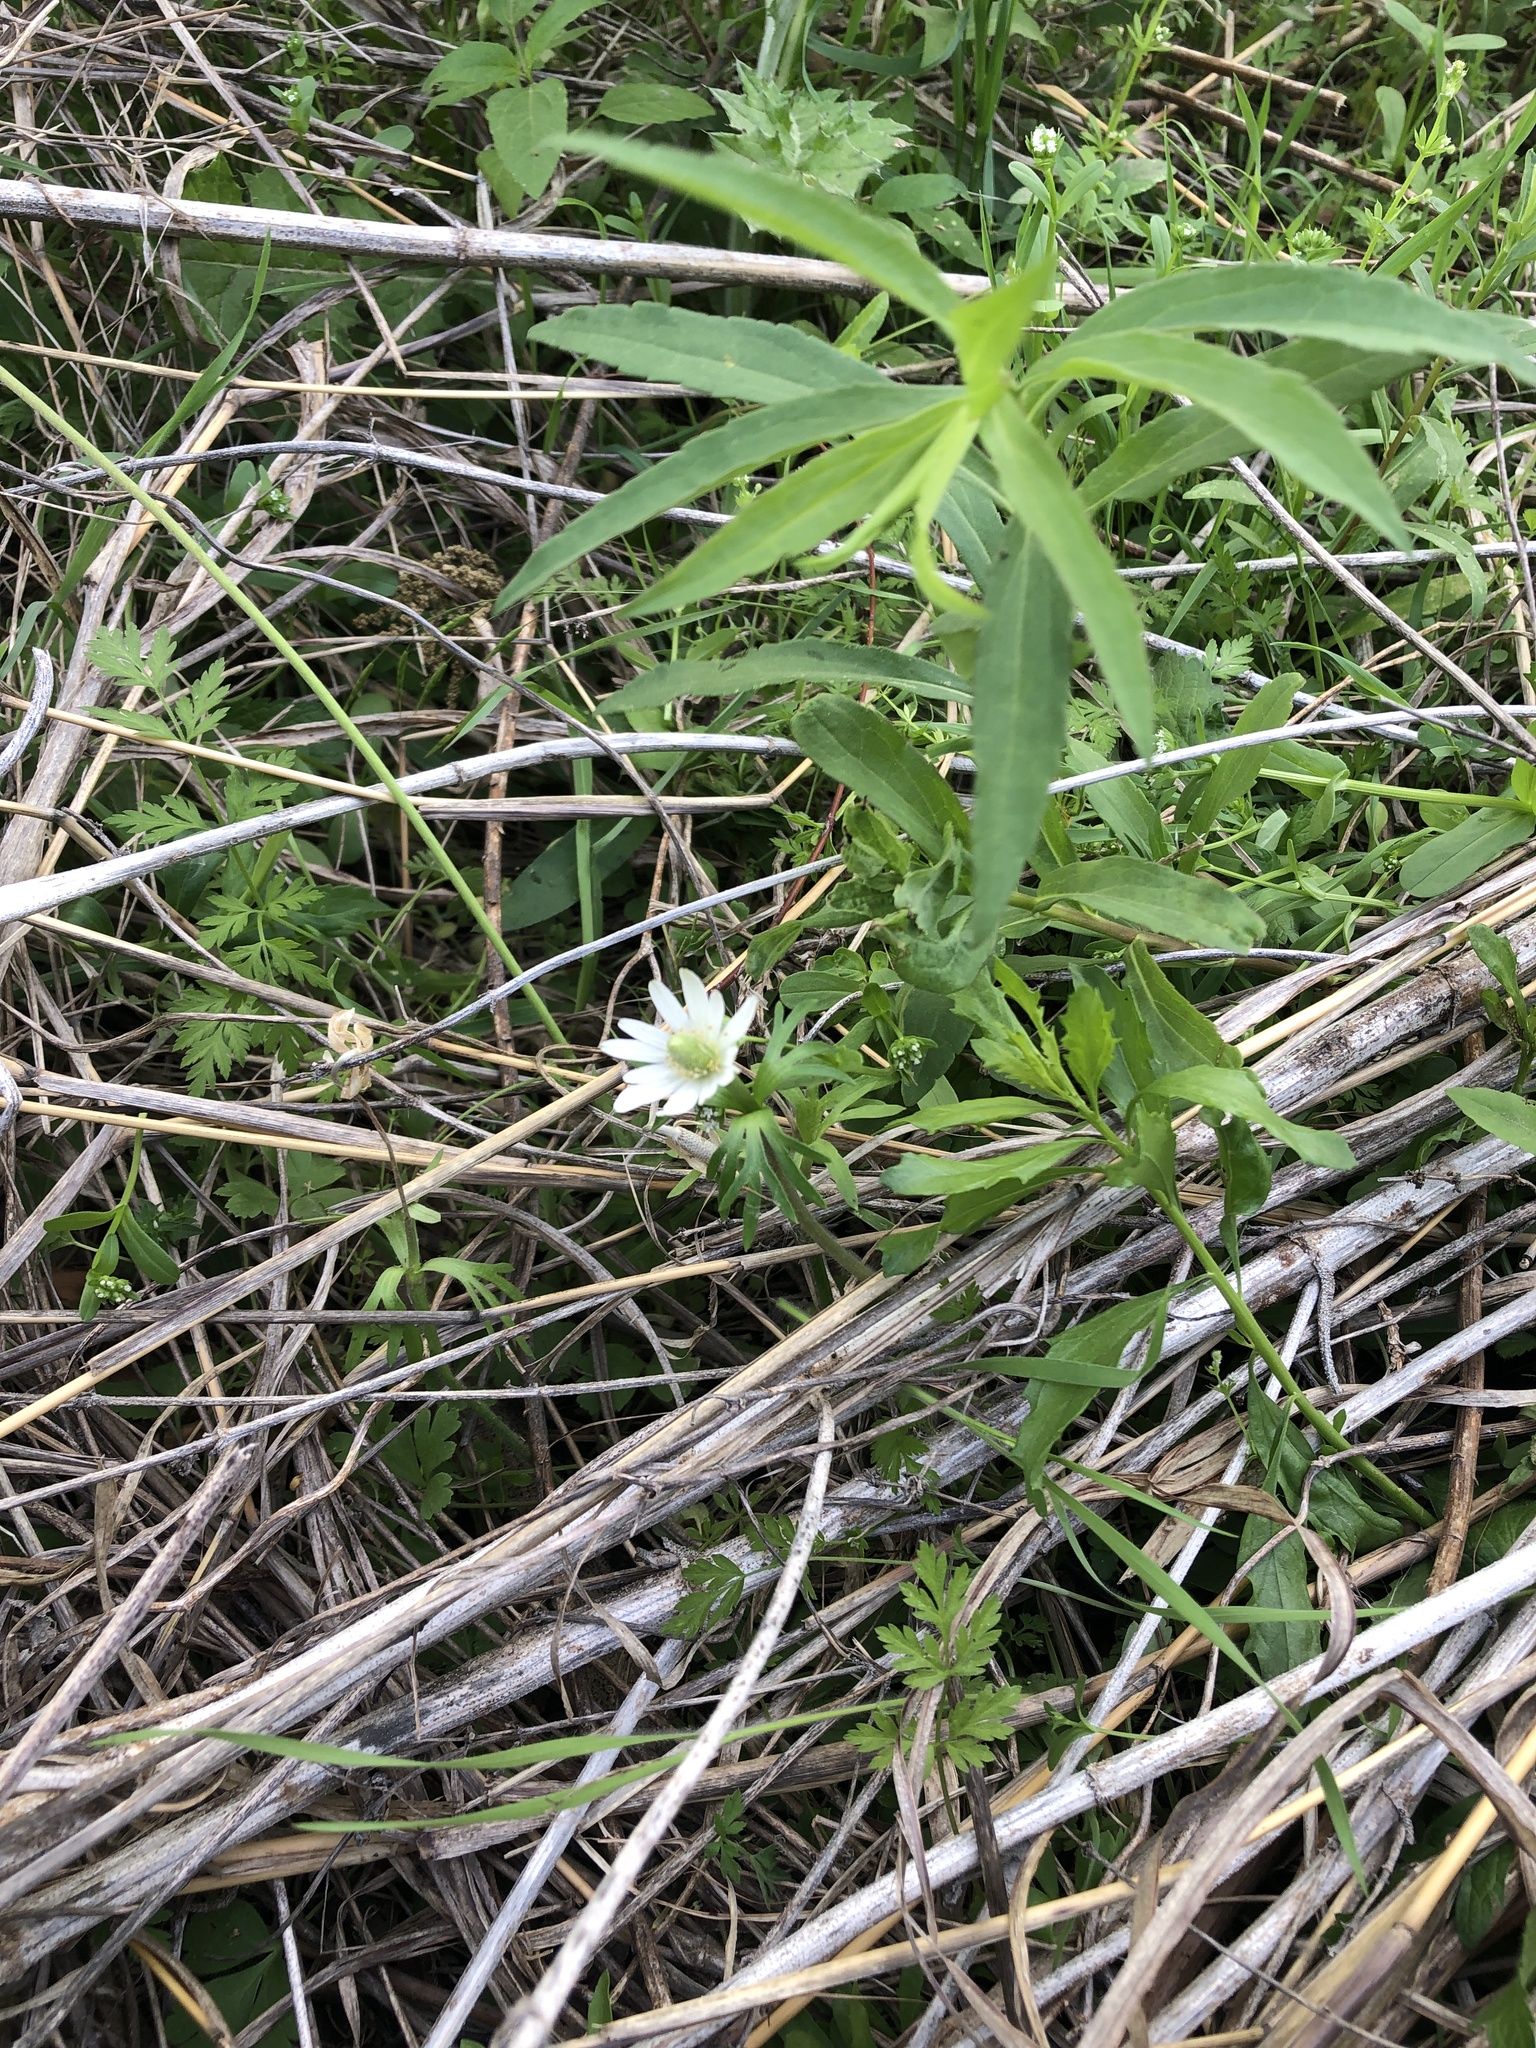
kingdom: Plantae
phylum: Tracheophyta
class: Magnoliopsida
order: Ranunculales
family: Ranunculaceae
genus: Anemone
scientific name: Anemone berlandieri
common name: Ten-petal anemone
